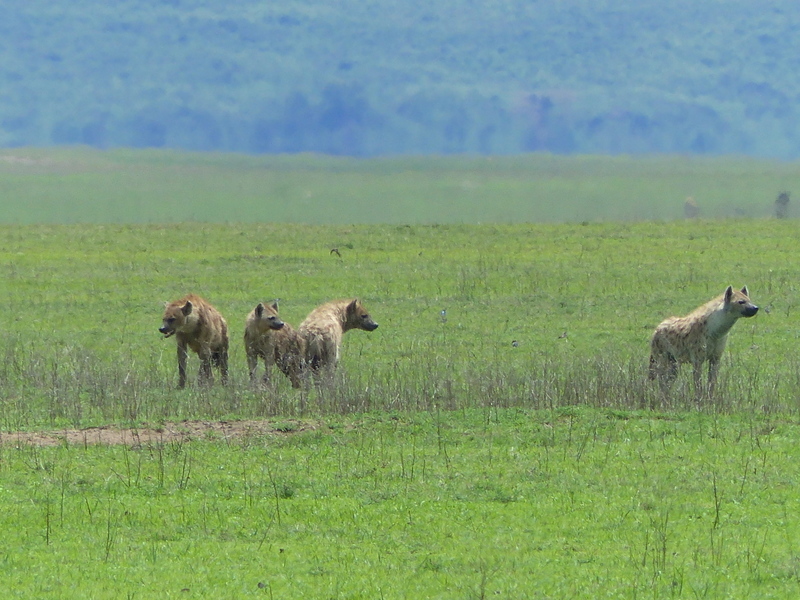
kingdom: Animalia
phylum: Chordata
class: Mammalia
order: Carnivora
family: Hyaenidae
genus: Crocuta
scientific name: Crocuta crocuta
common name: Spotted hyaena
